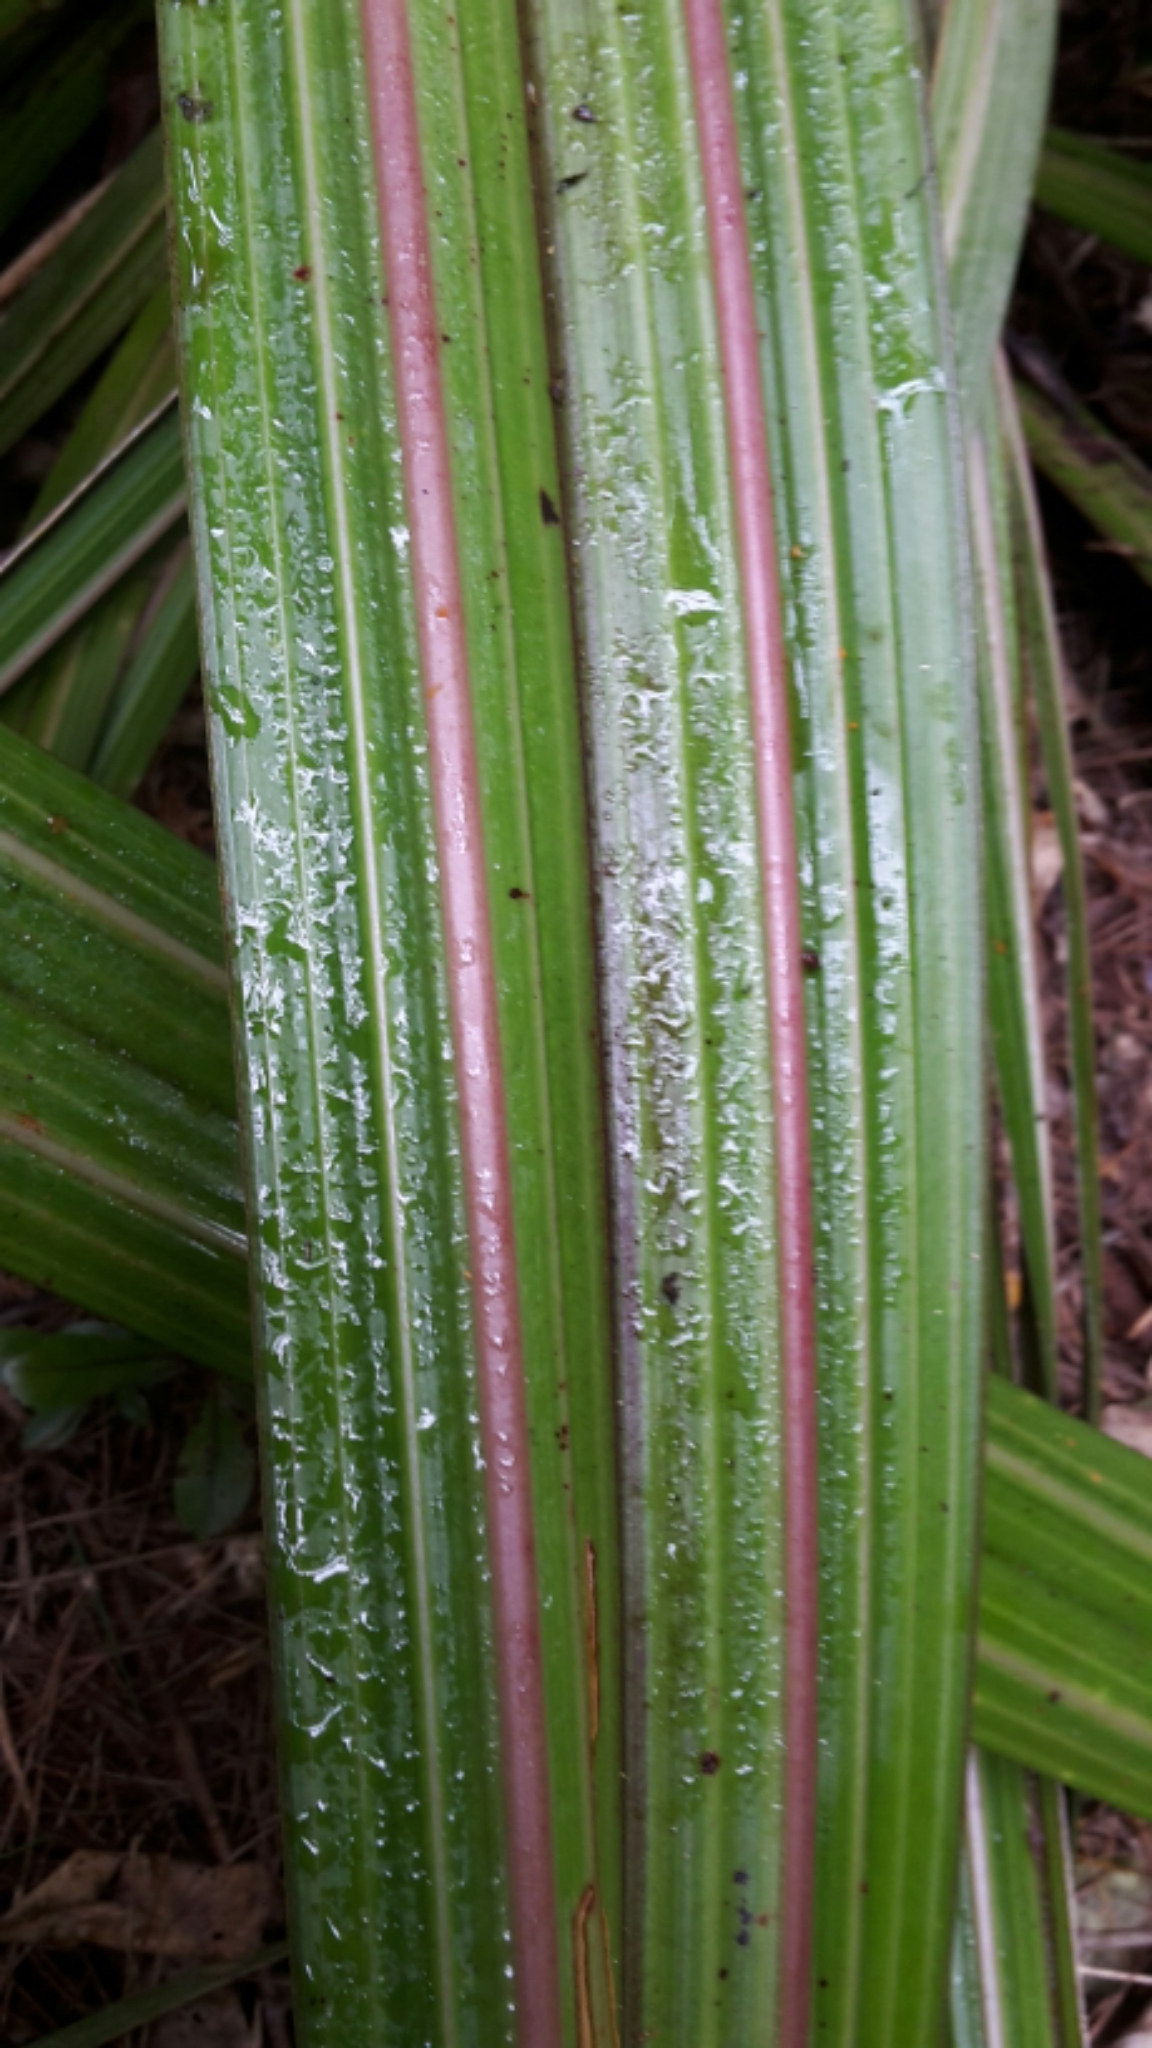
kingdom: Plantae
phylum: Tracheophyta
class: Liliopsida
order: Asparagales
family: Asteliaceae
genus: Astelia
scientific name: Astelia fragrans
